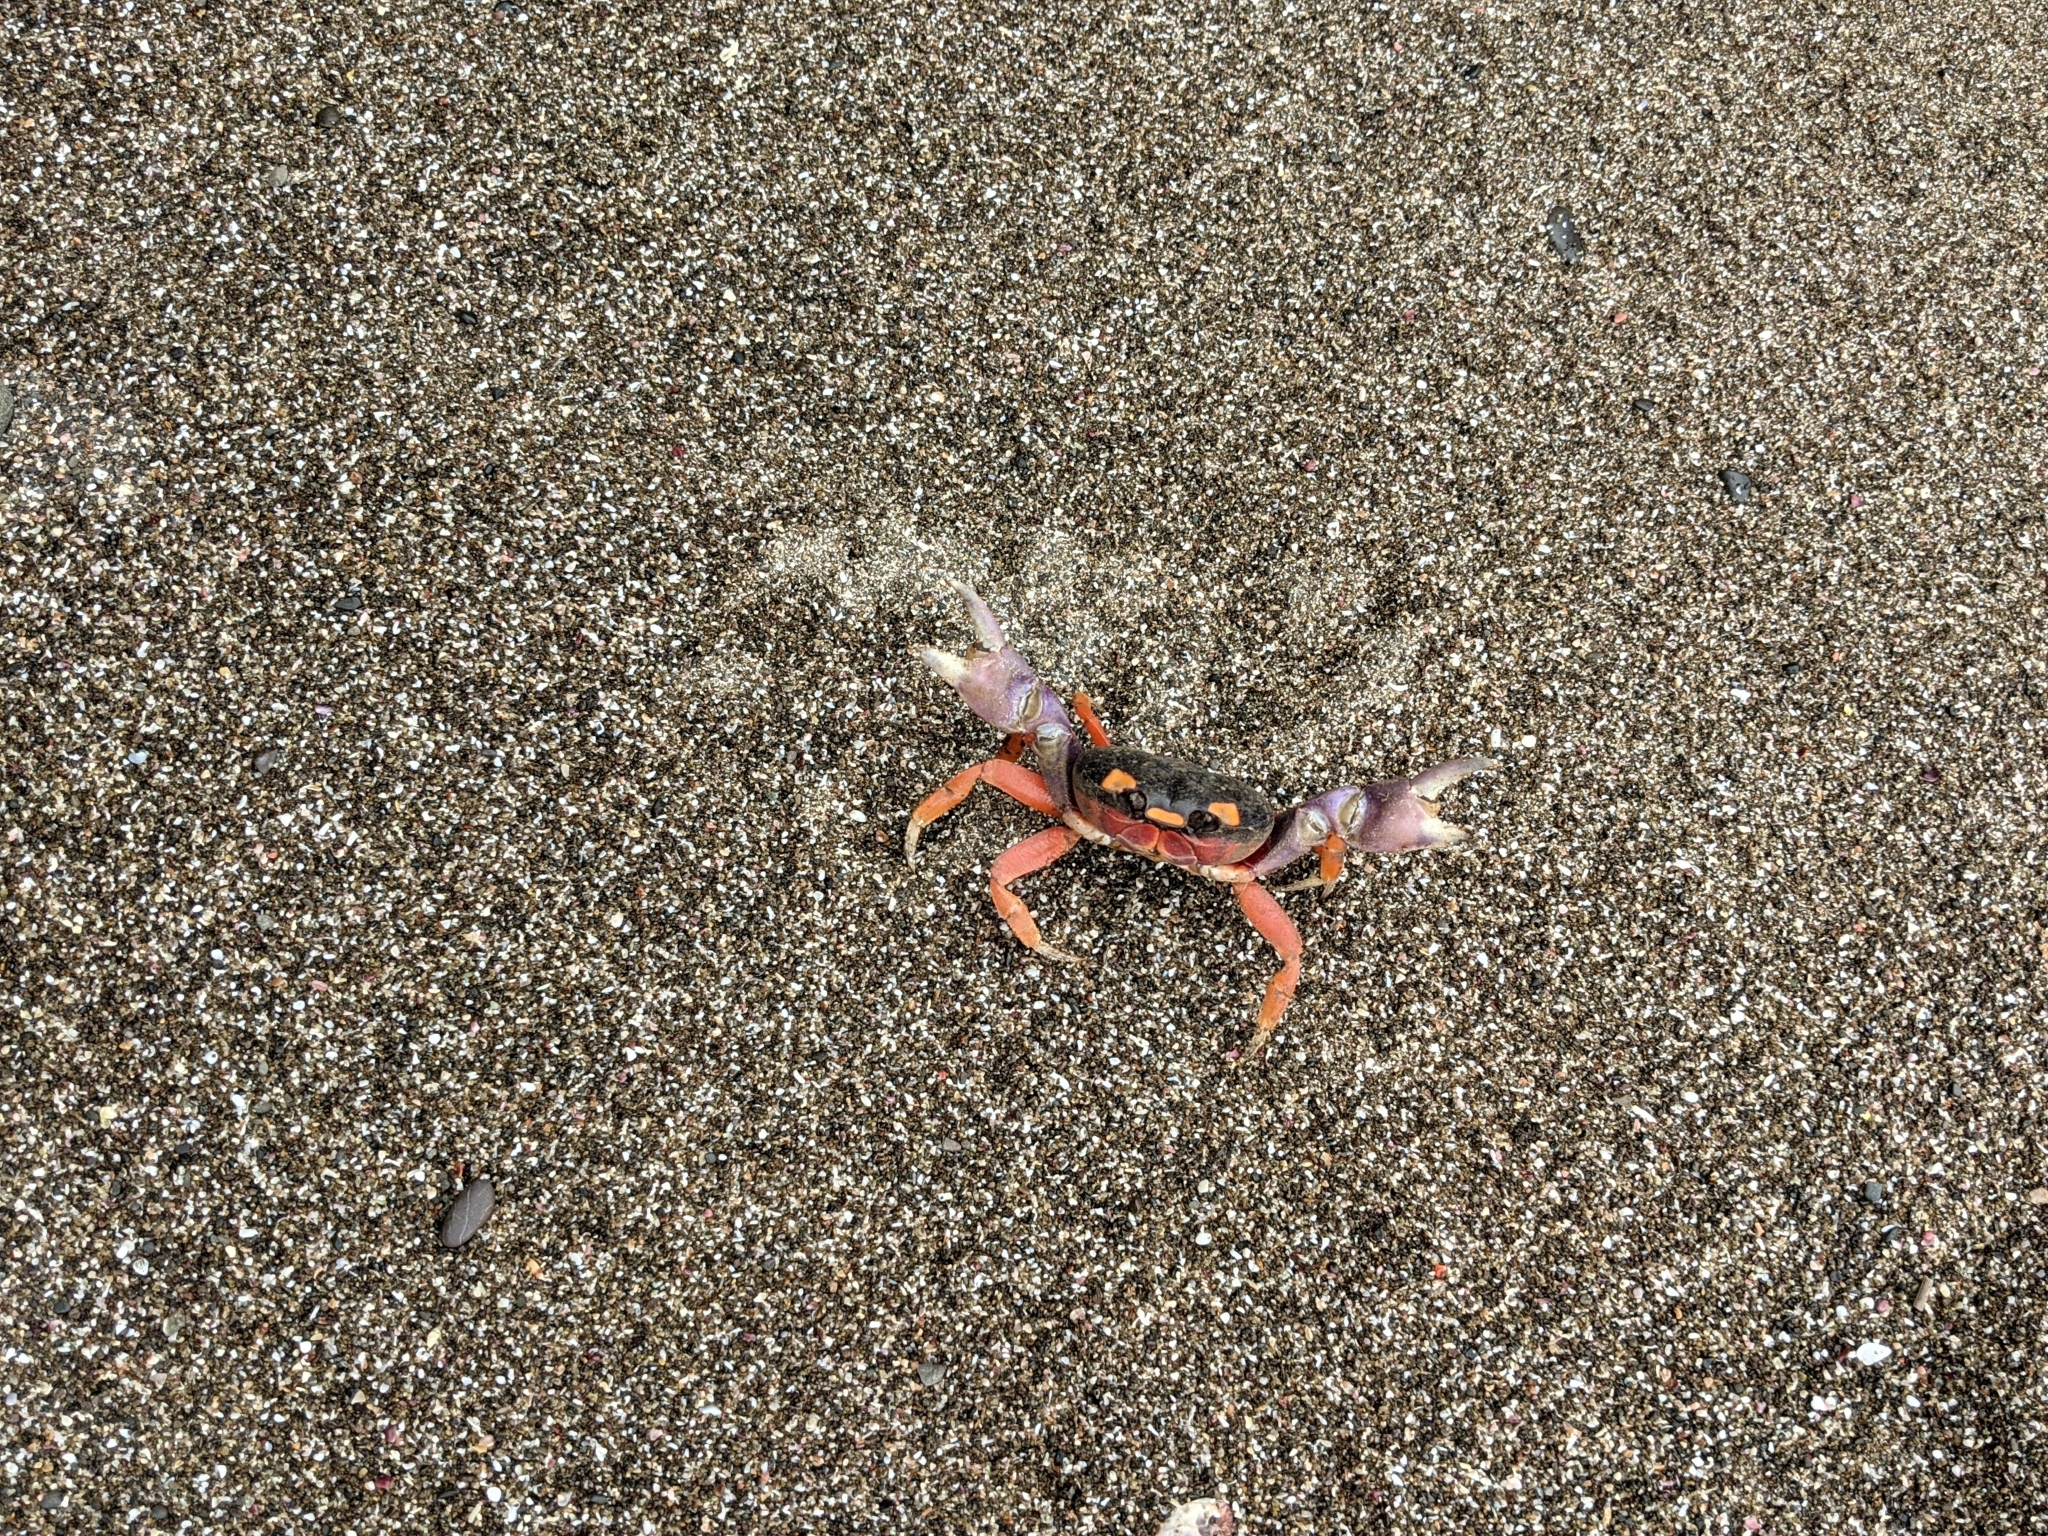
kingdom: Animalia
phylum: Arthropoda
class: Malacostraca
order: Decapoda
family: Gecarcinidae
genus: Gecarcinus
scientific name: Gecarcinus quadratus
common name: Halloween crab
